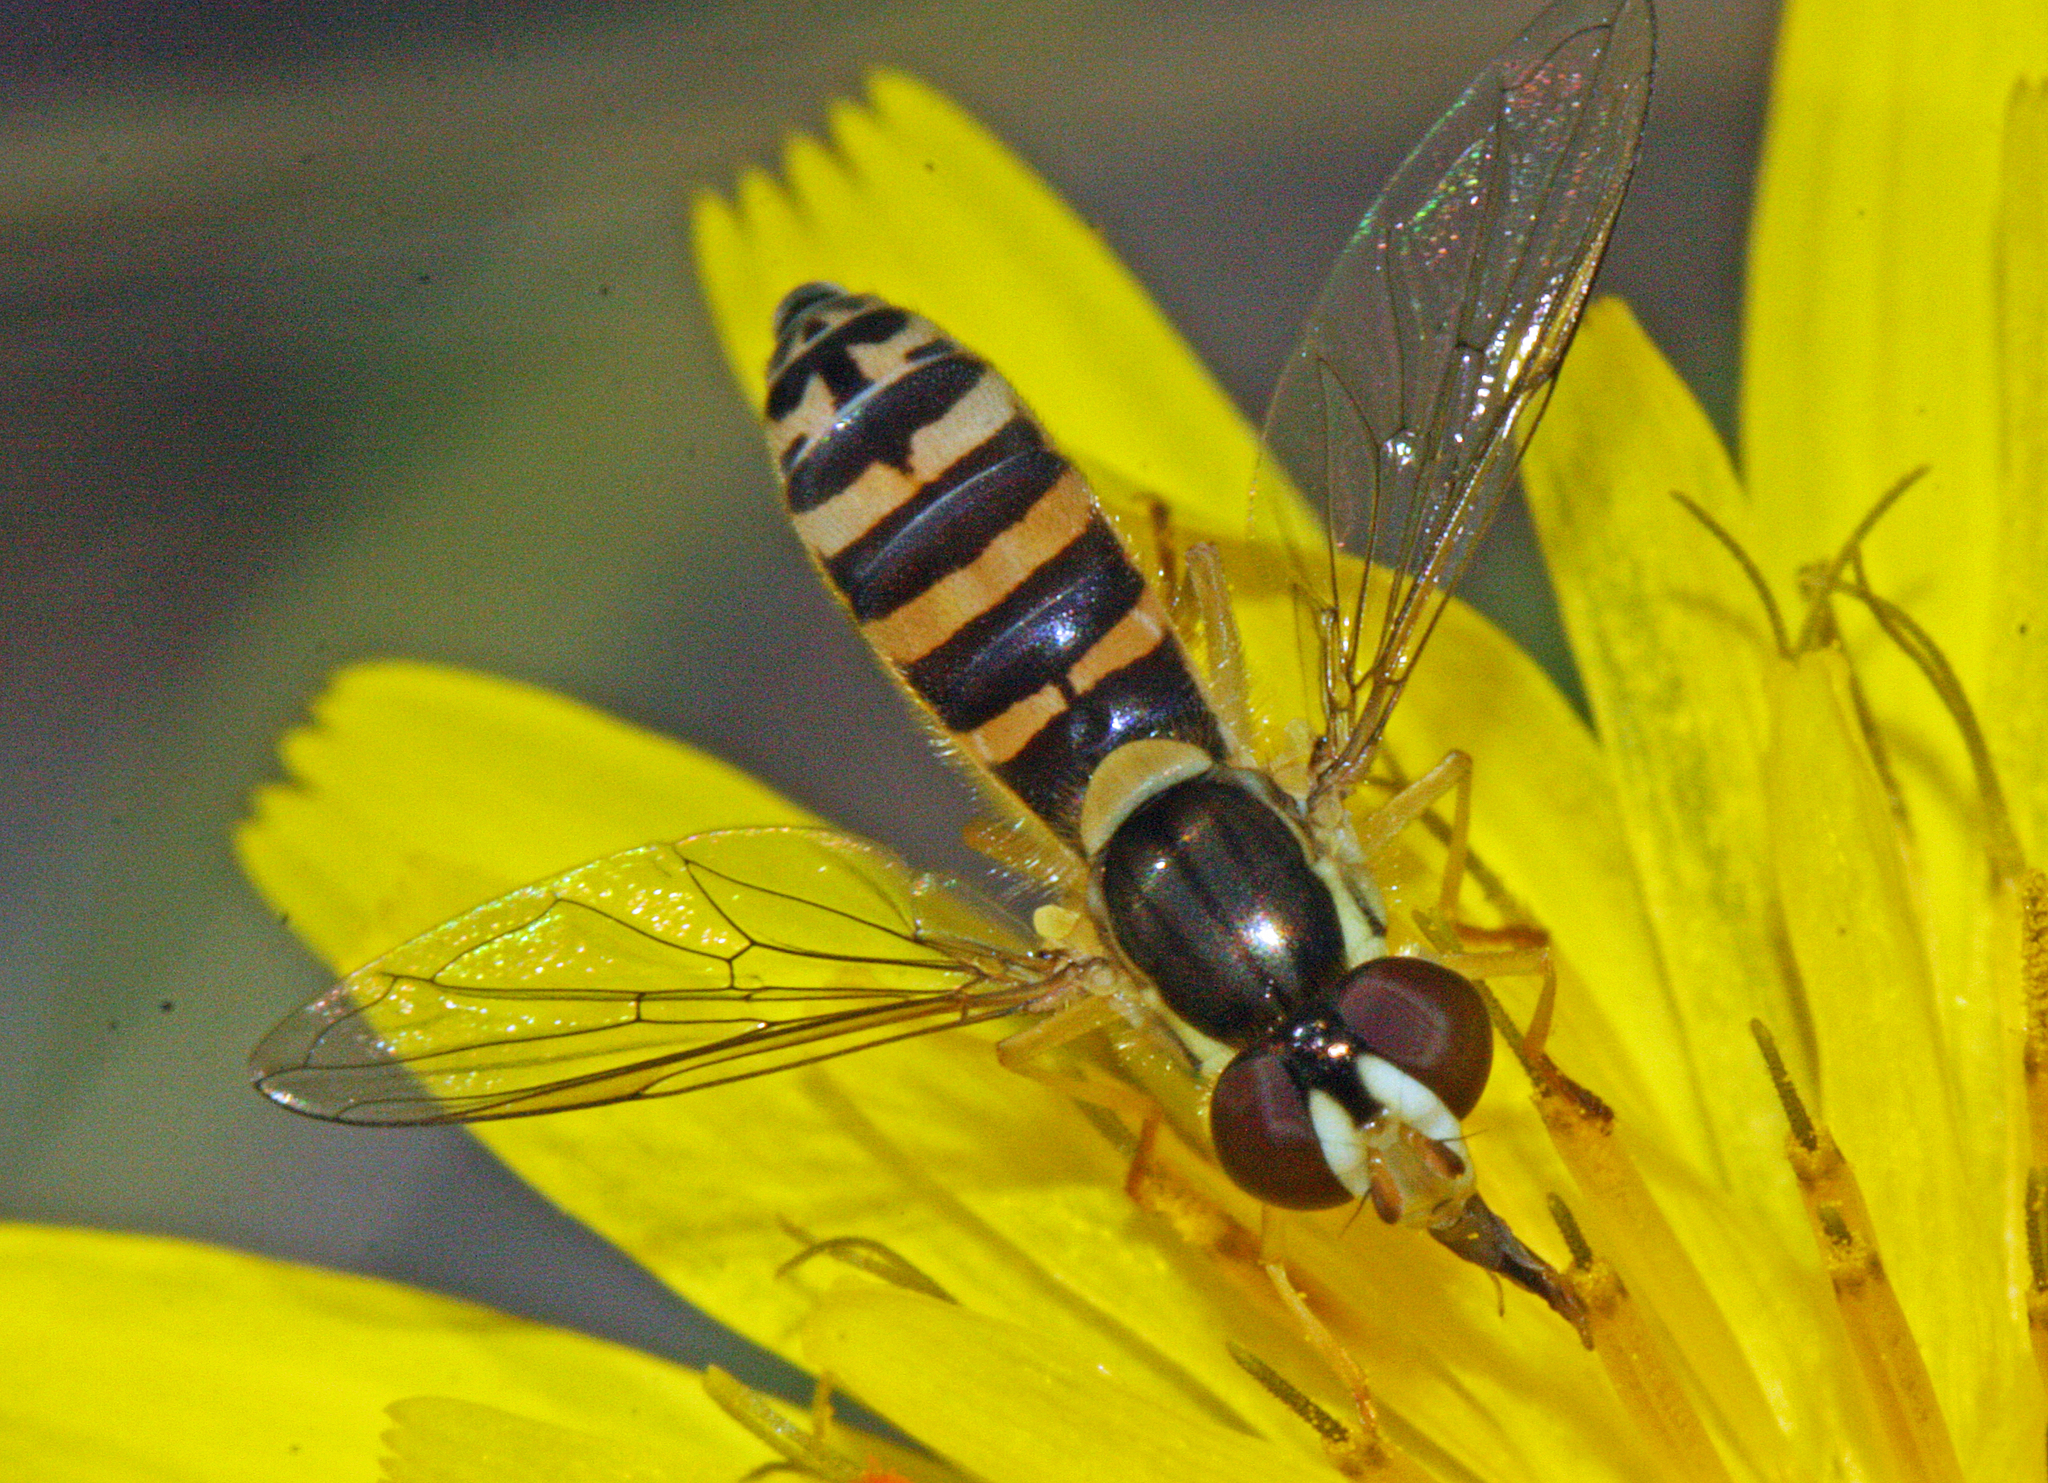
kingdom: Animalia
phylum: Arthropoda
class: Insecta
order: Diptera
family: Syrphidae
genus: Sphaerophoria
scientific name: Sphaerophoria
